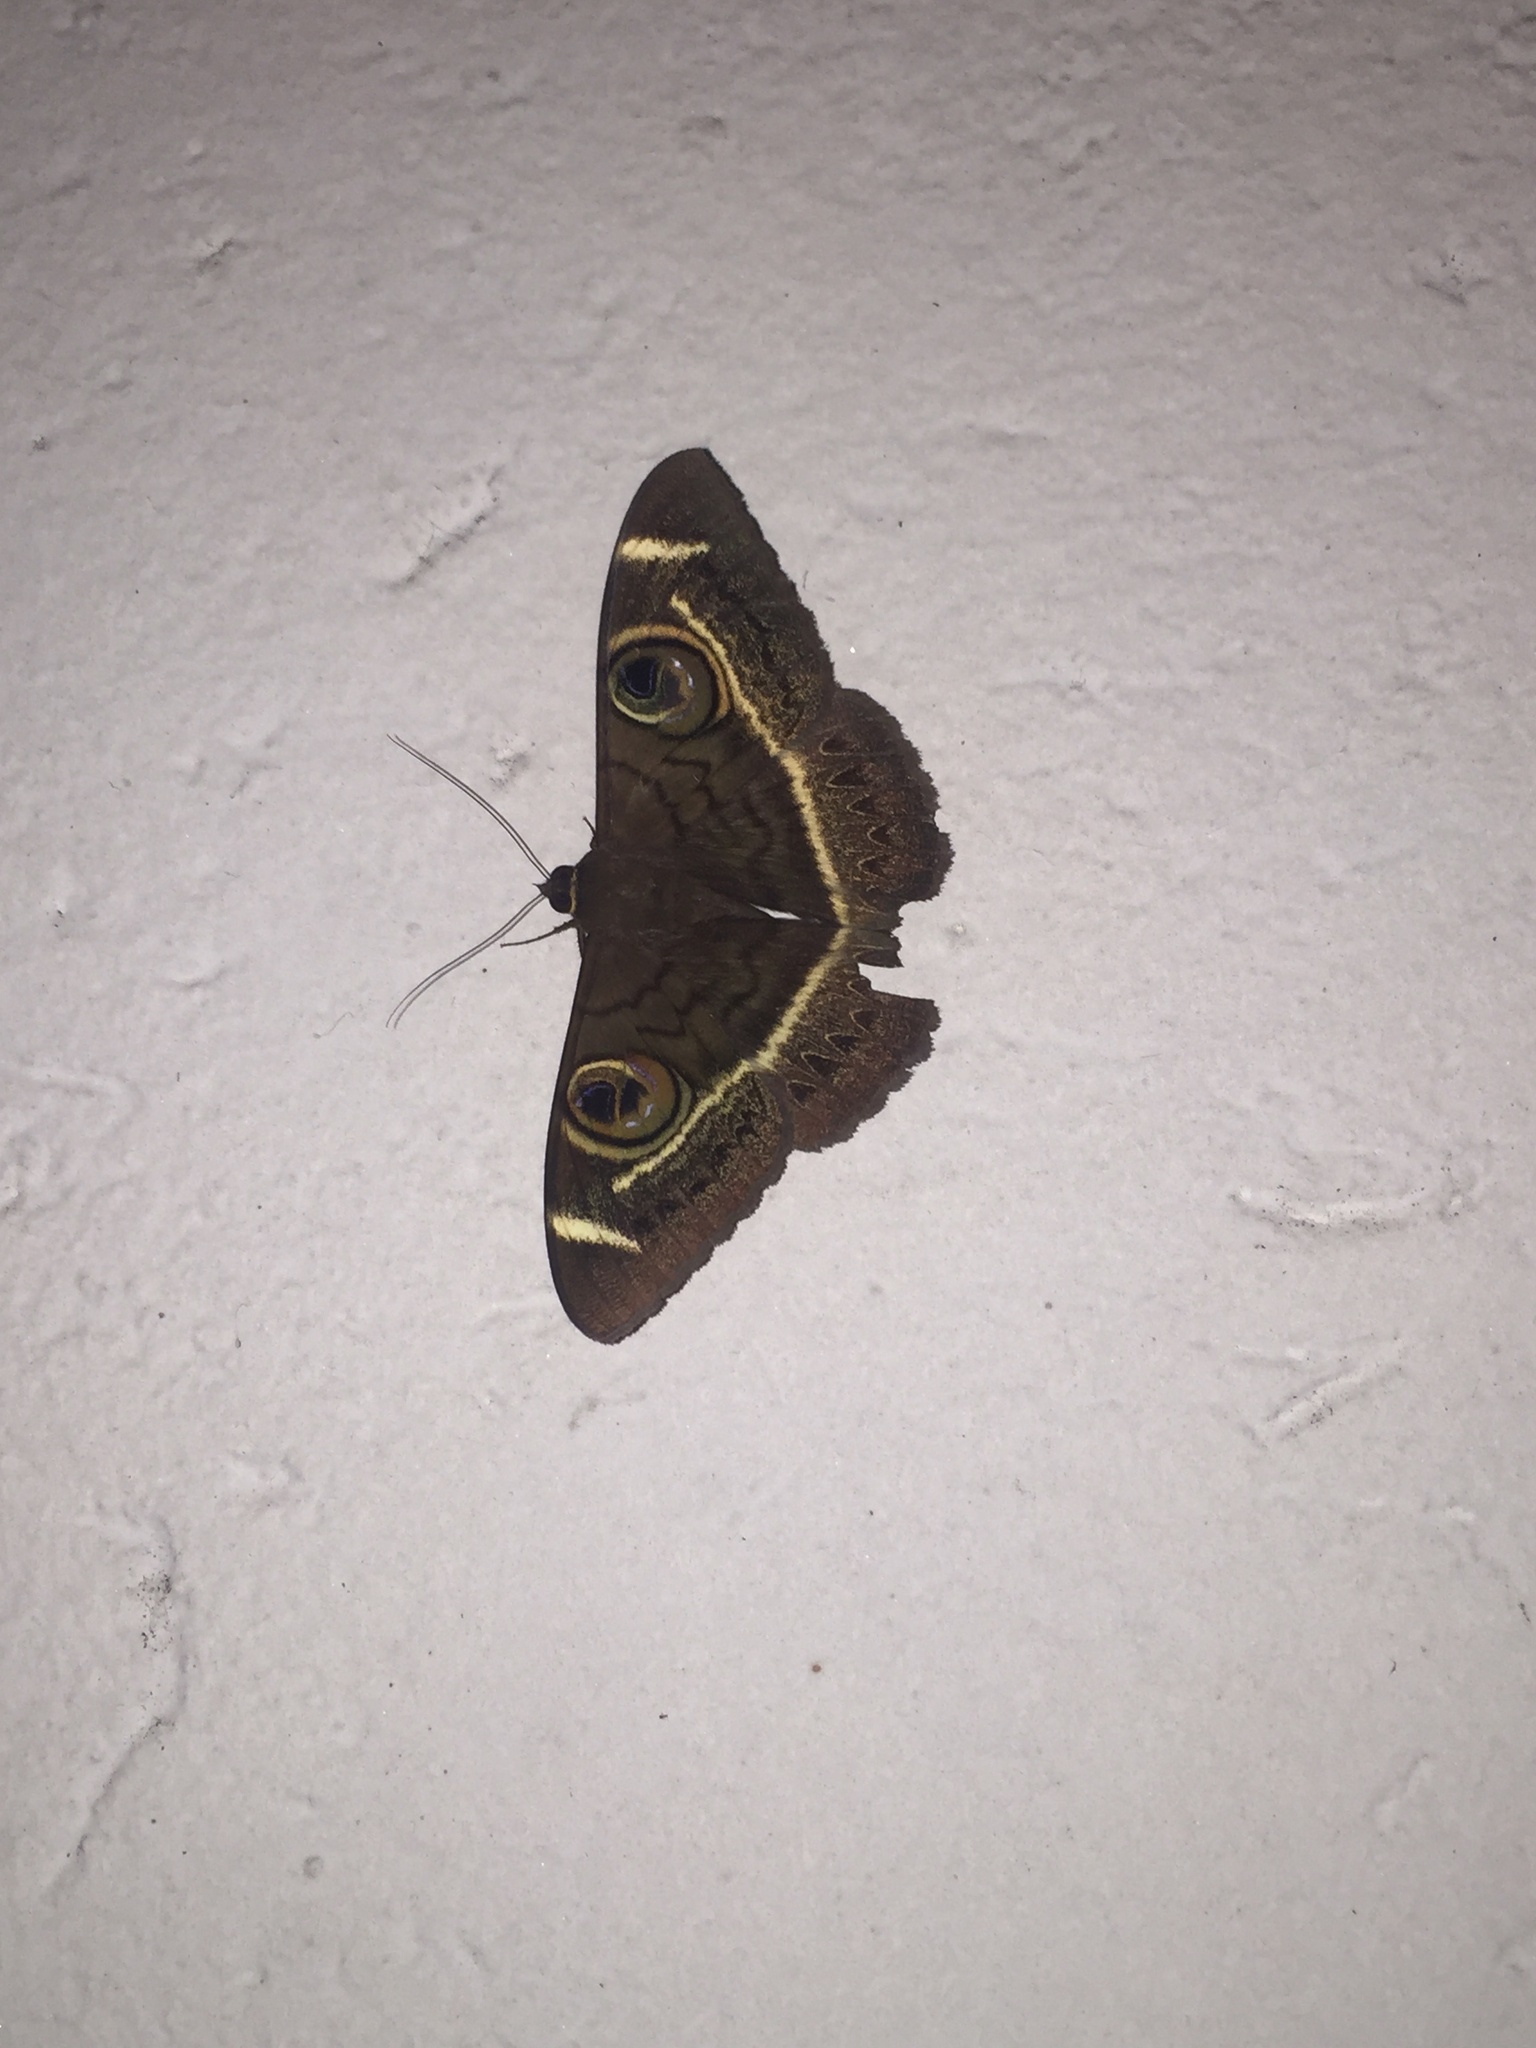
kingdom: Animalia
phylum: Arthropoda
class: Insecta
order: Lepidoptera
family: Erebidae
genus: Cyligramma
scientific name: Cyligramma latona
